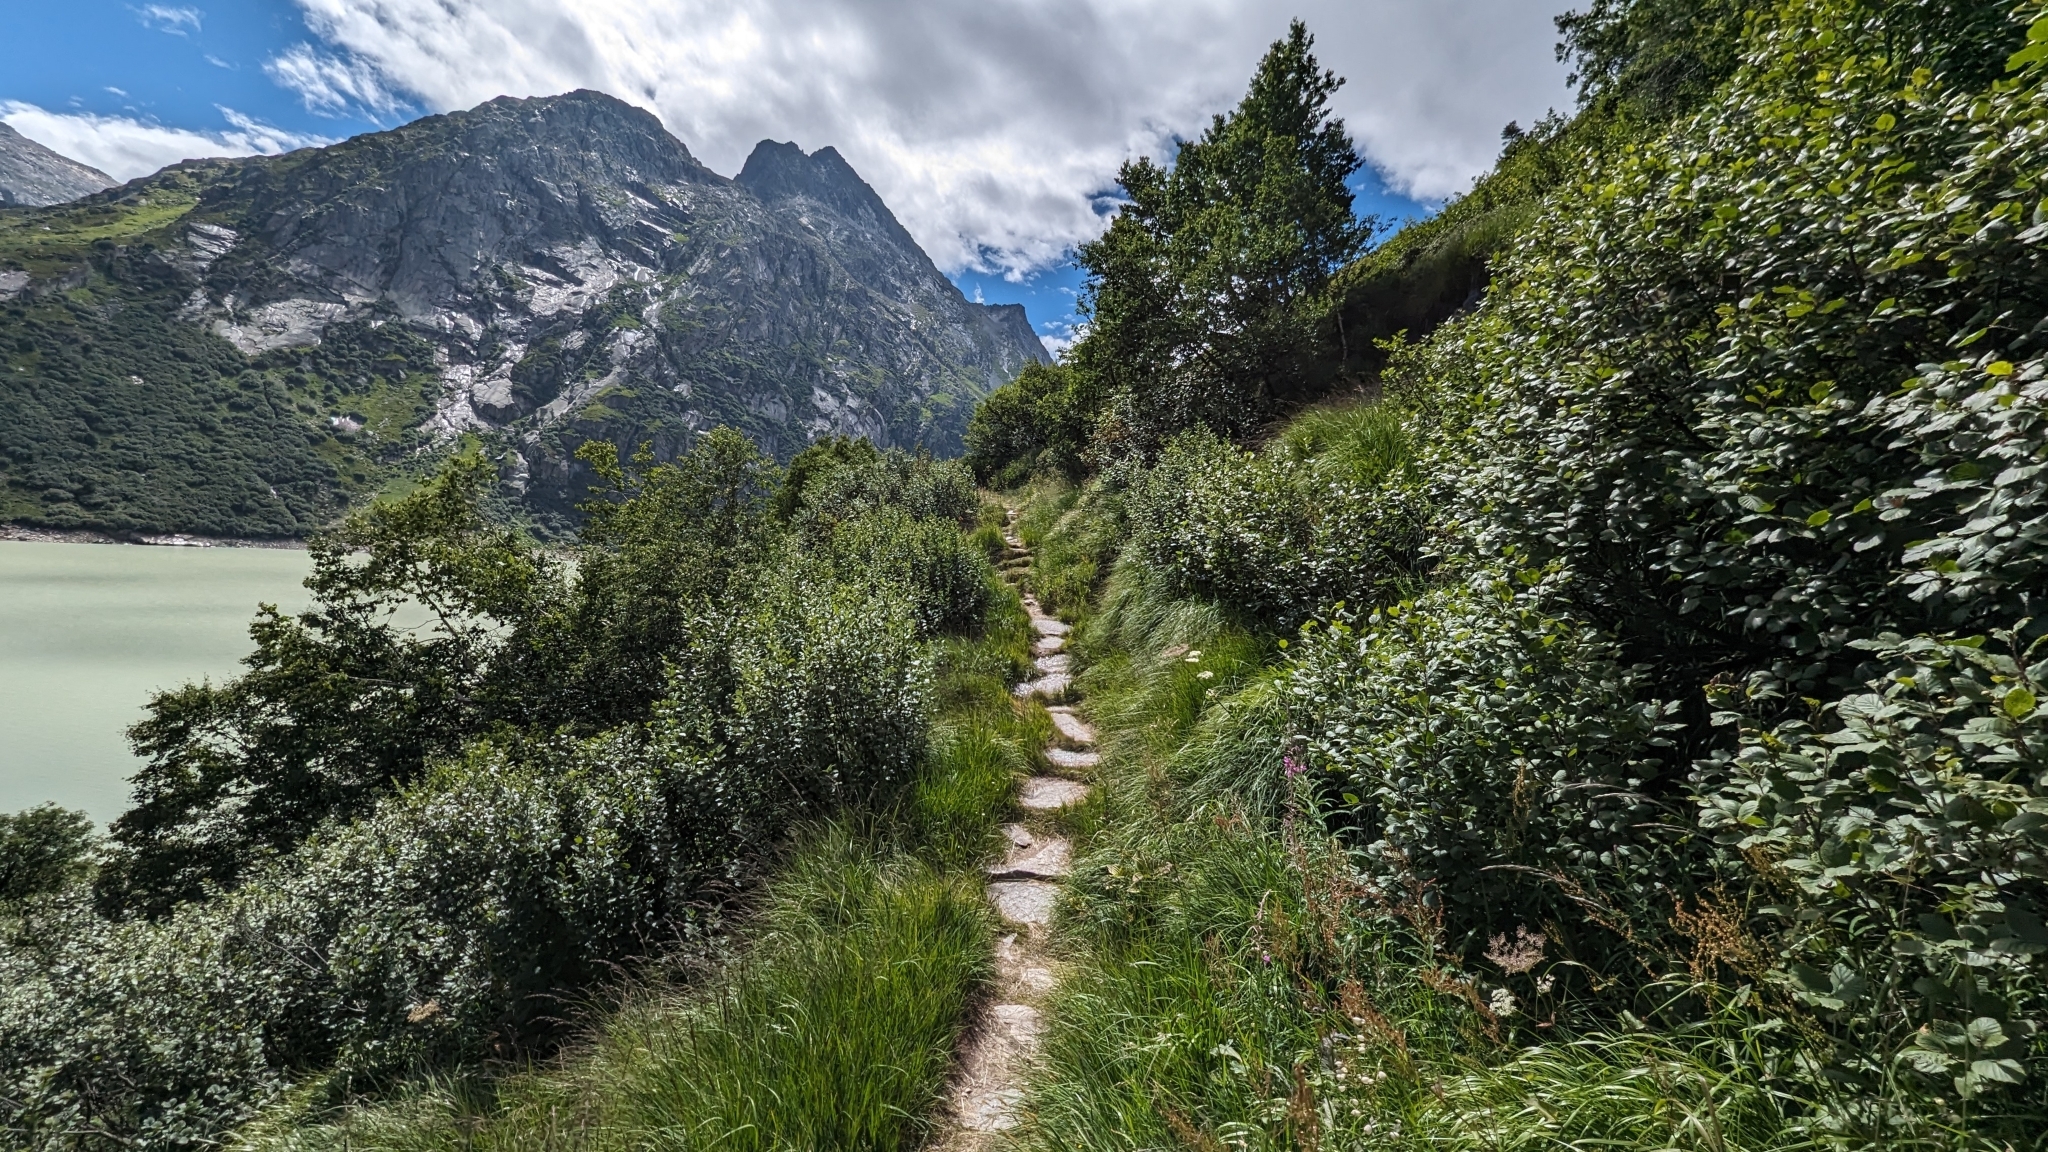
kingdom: Animalia
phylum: Arthropoda
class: Insecta
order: Hymenoptera
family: Formicidae
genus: Formica
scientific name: Formica
